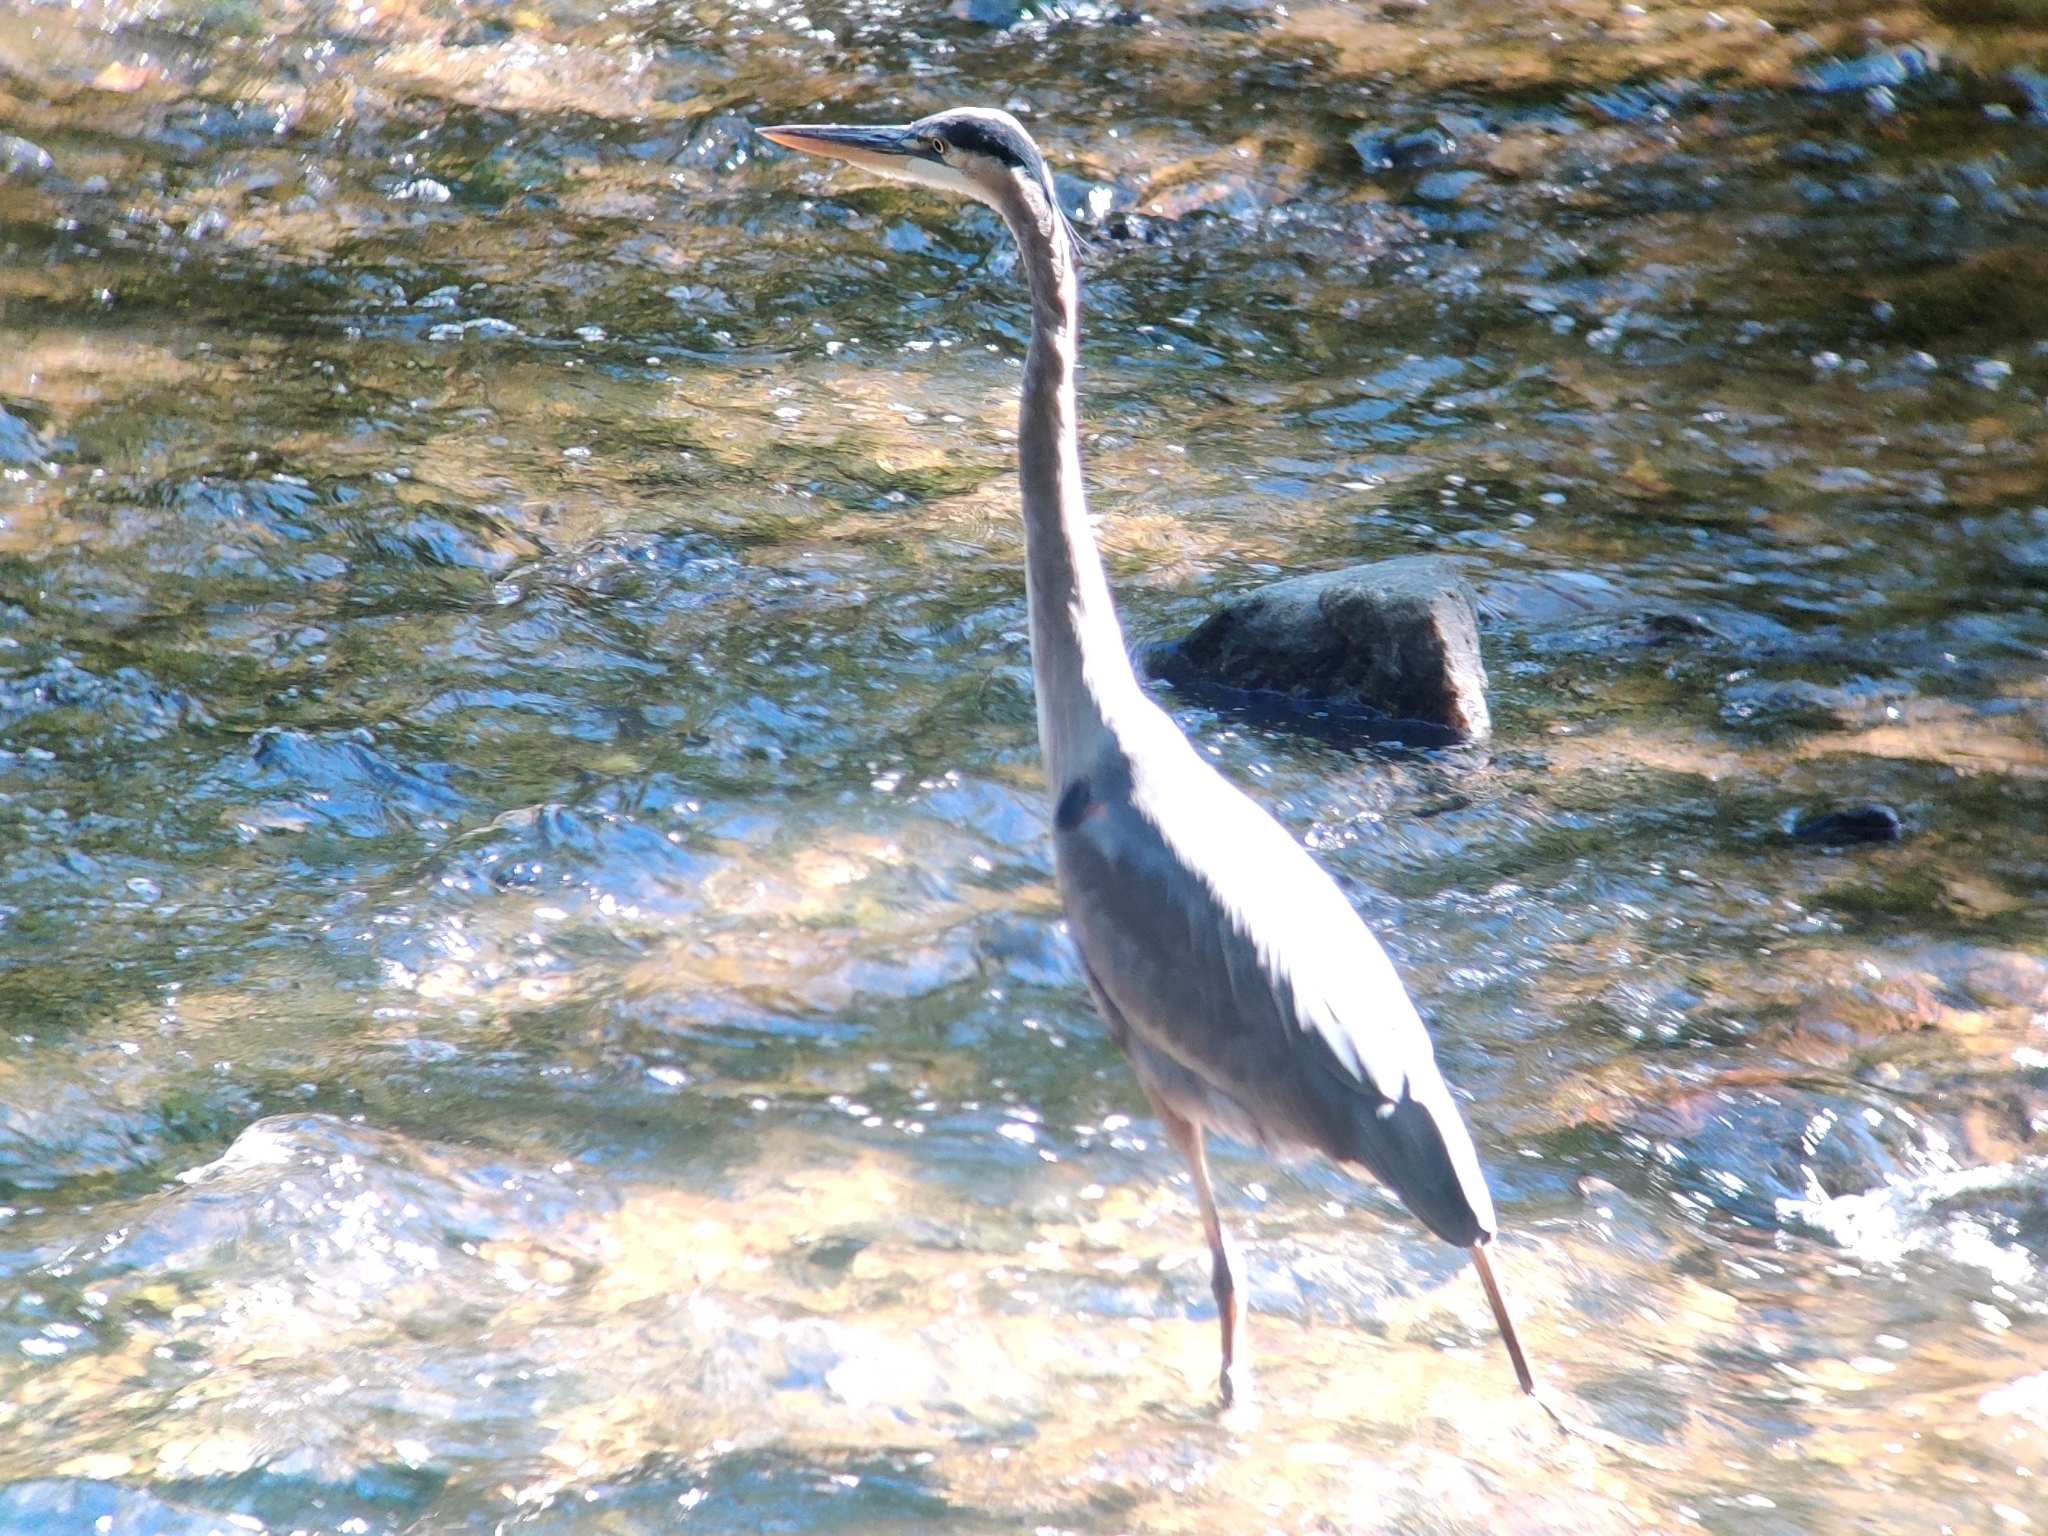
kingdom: Animalia
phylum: Chordata
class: Aves
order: Pelecaniformes
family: Ardeidae
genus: Ardea
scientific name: Ardea herodias
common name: Great blue heron
